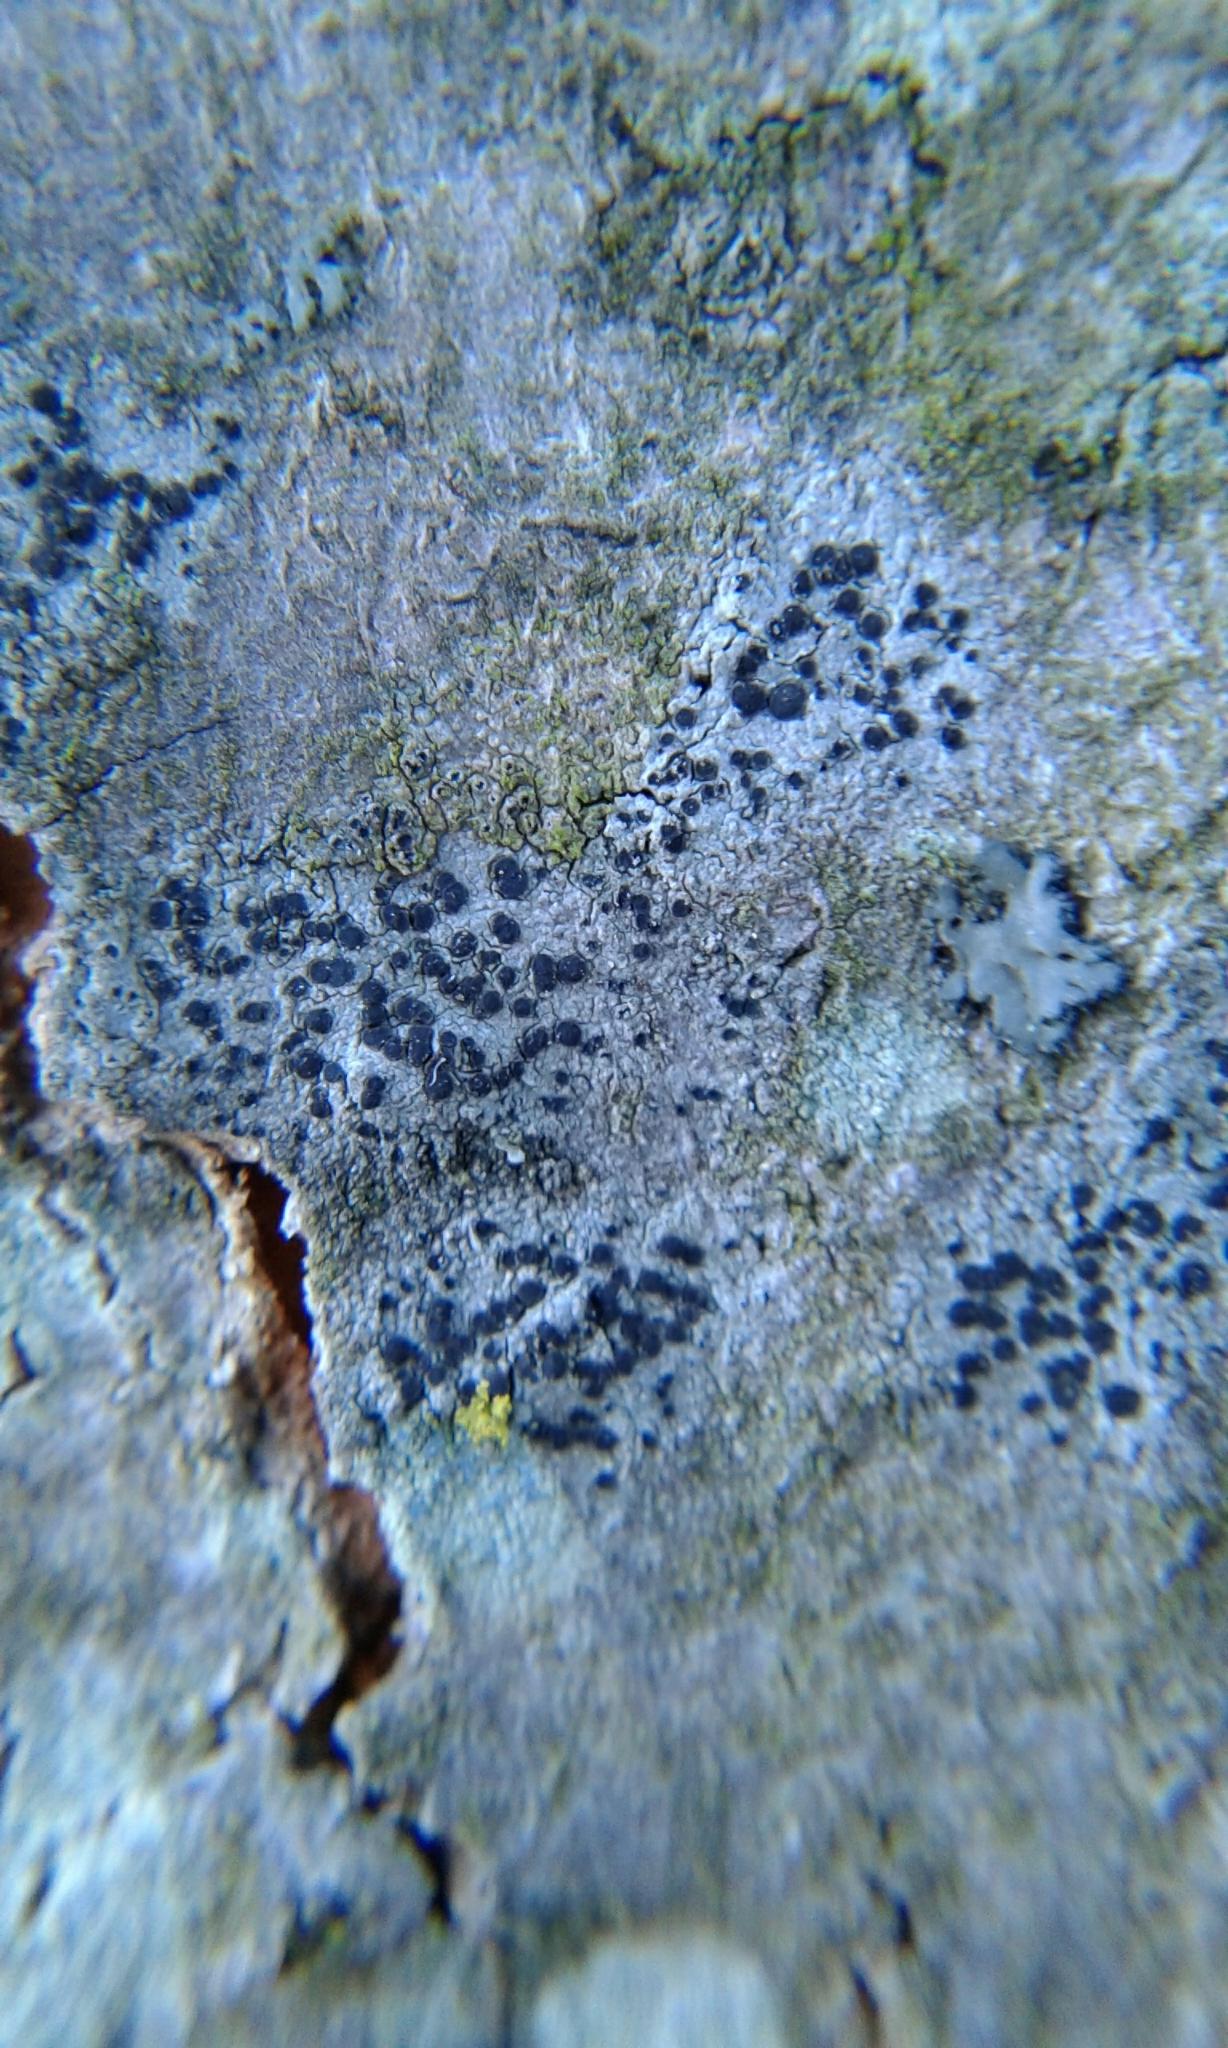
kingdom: Fungi
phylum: Ascomycota
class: Lecanoromycetes
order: Caliciales
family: Caliciaceae
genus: Buellia
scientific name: Buellia erubescens
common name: Common button lichen
